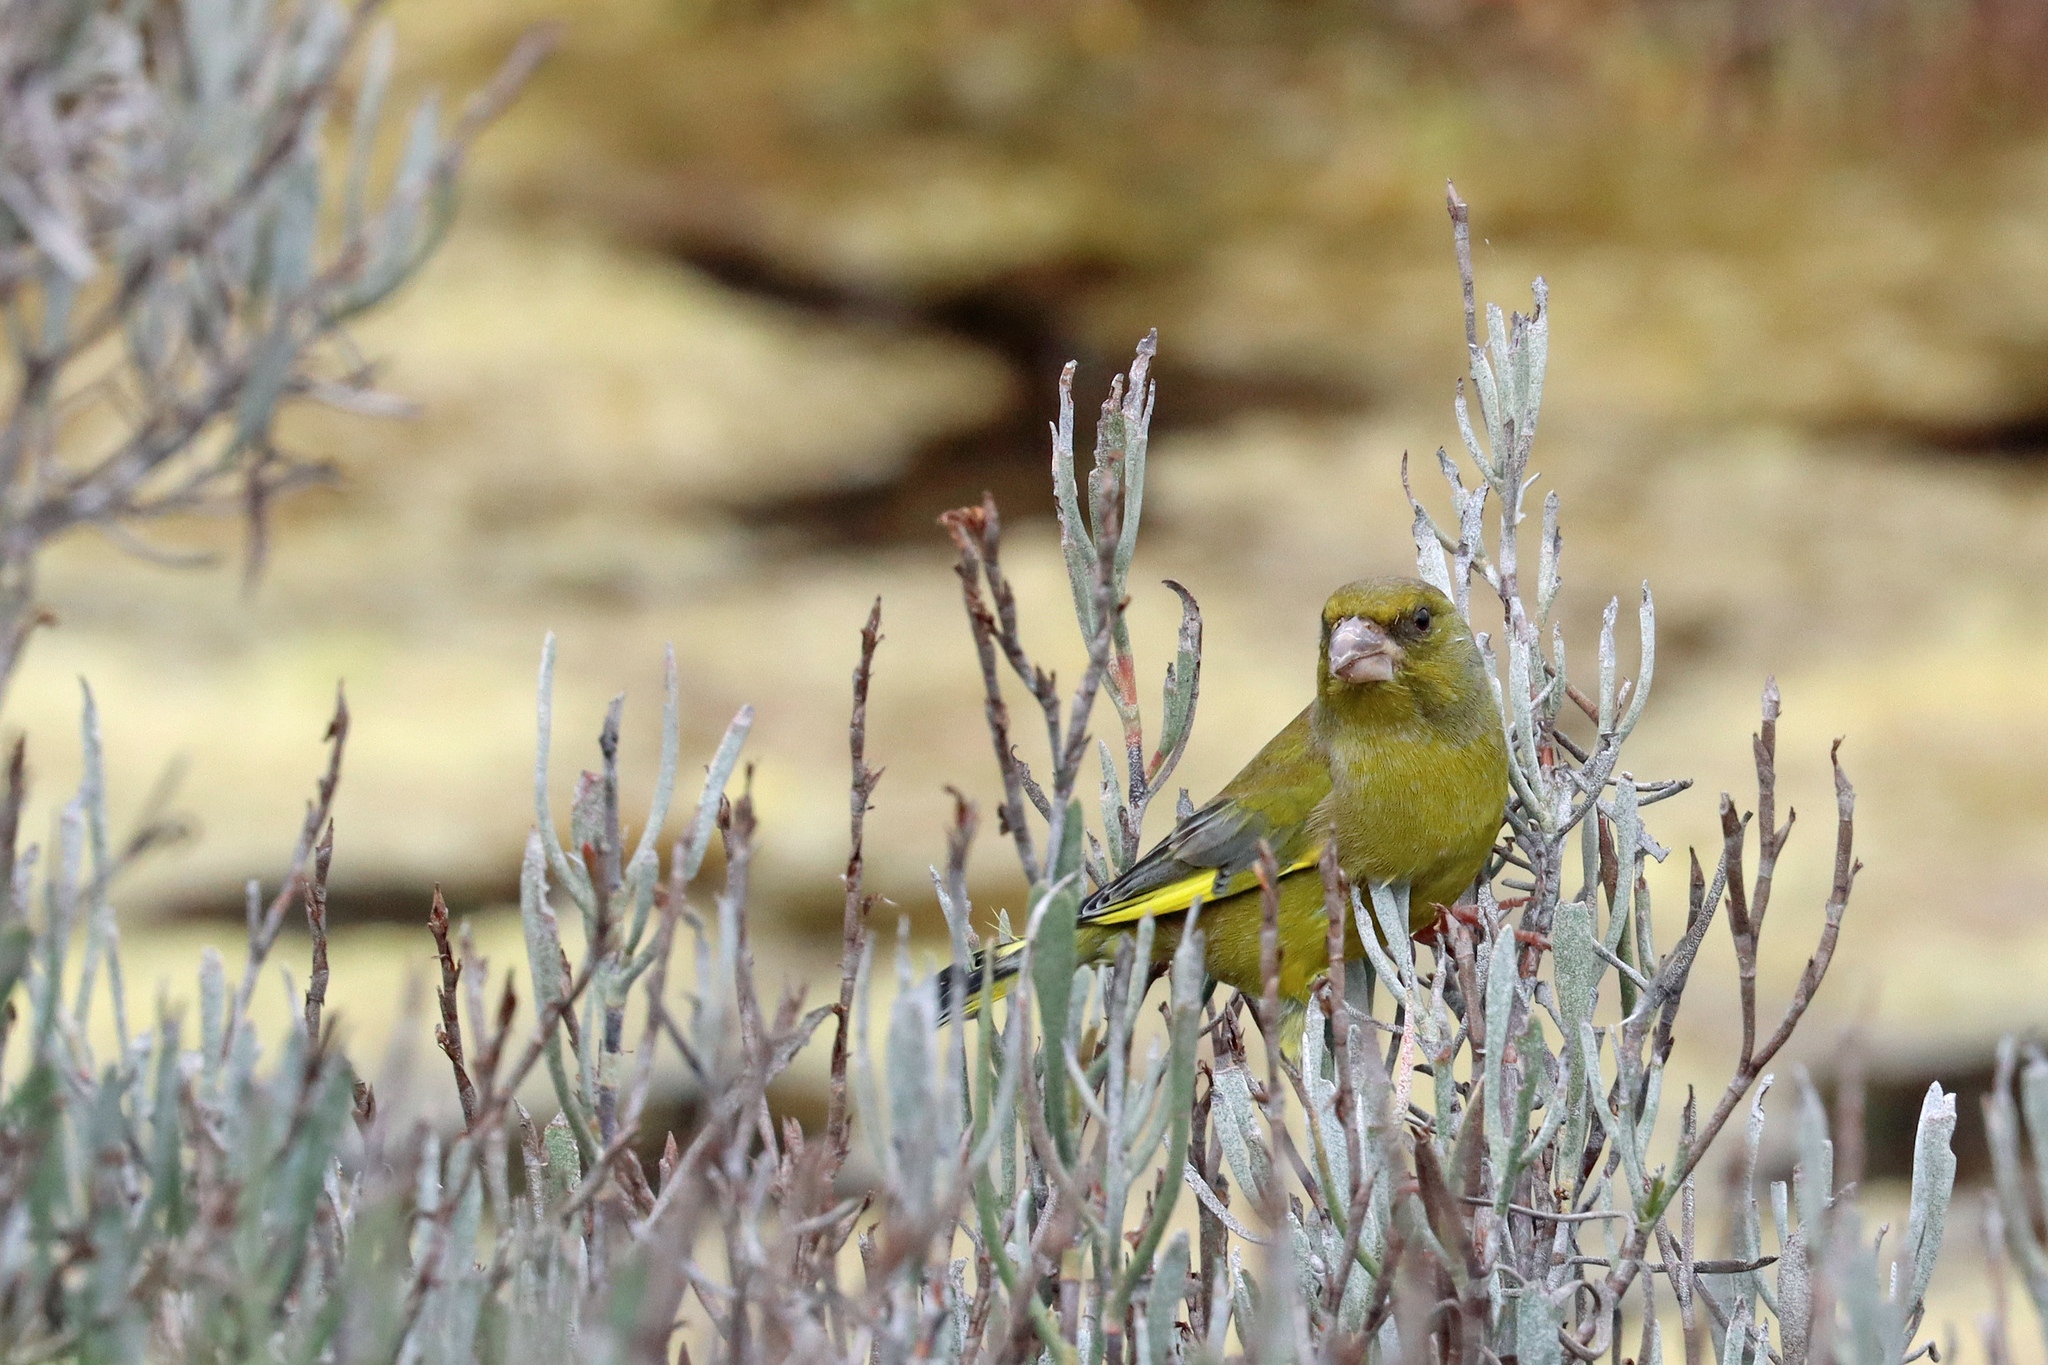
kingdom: Plantae
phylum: Tracheophyta
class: Liliopsida
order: Poales
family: Poaceae
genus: Chloris
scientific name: Chloris chloris
